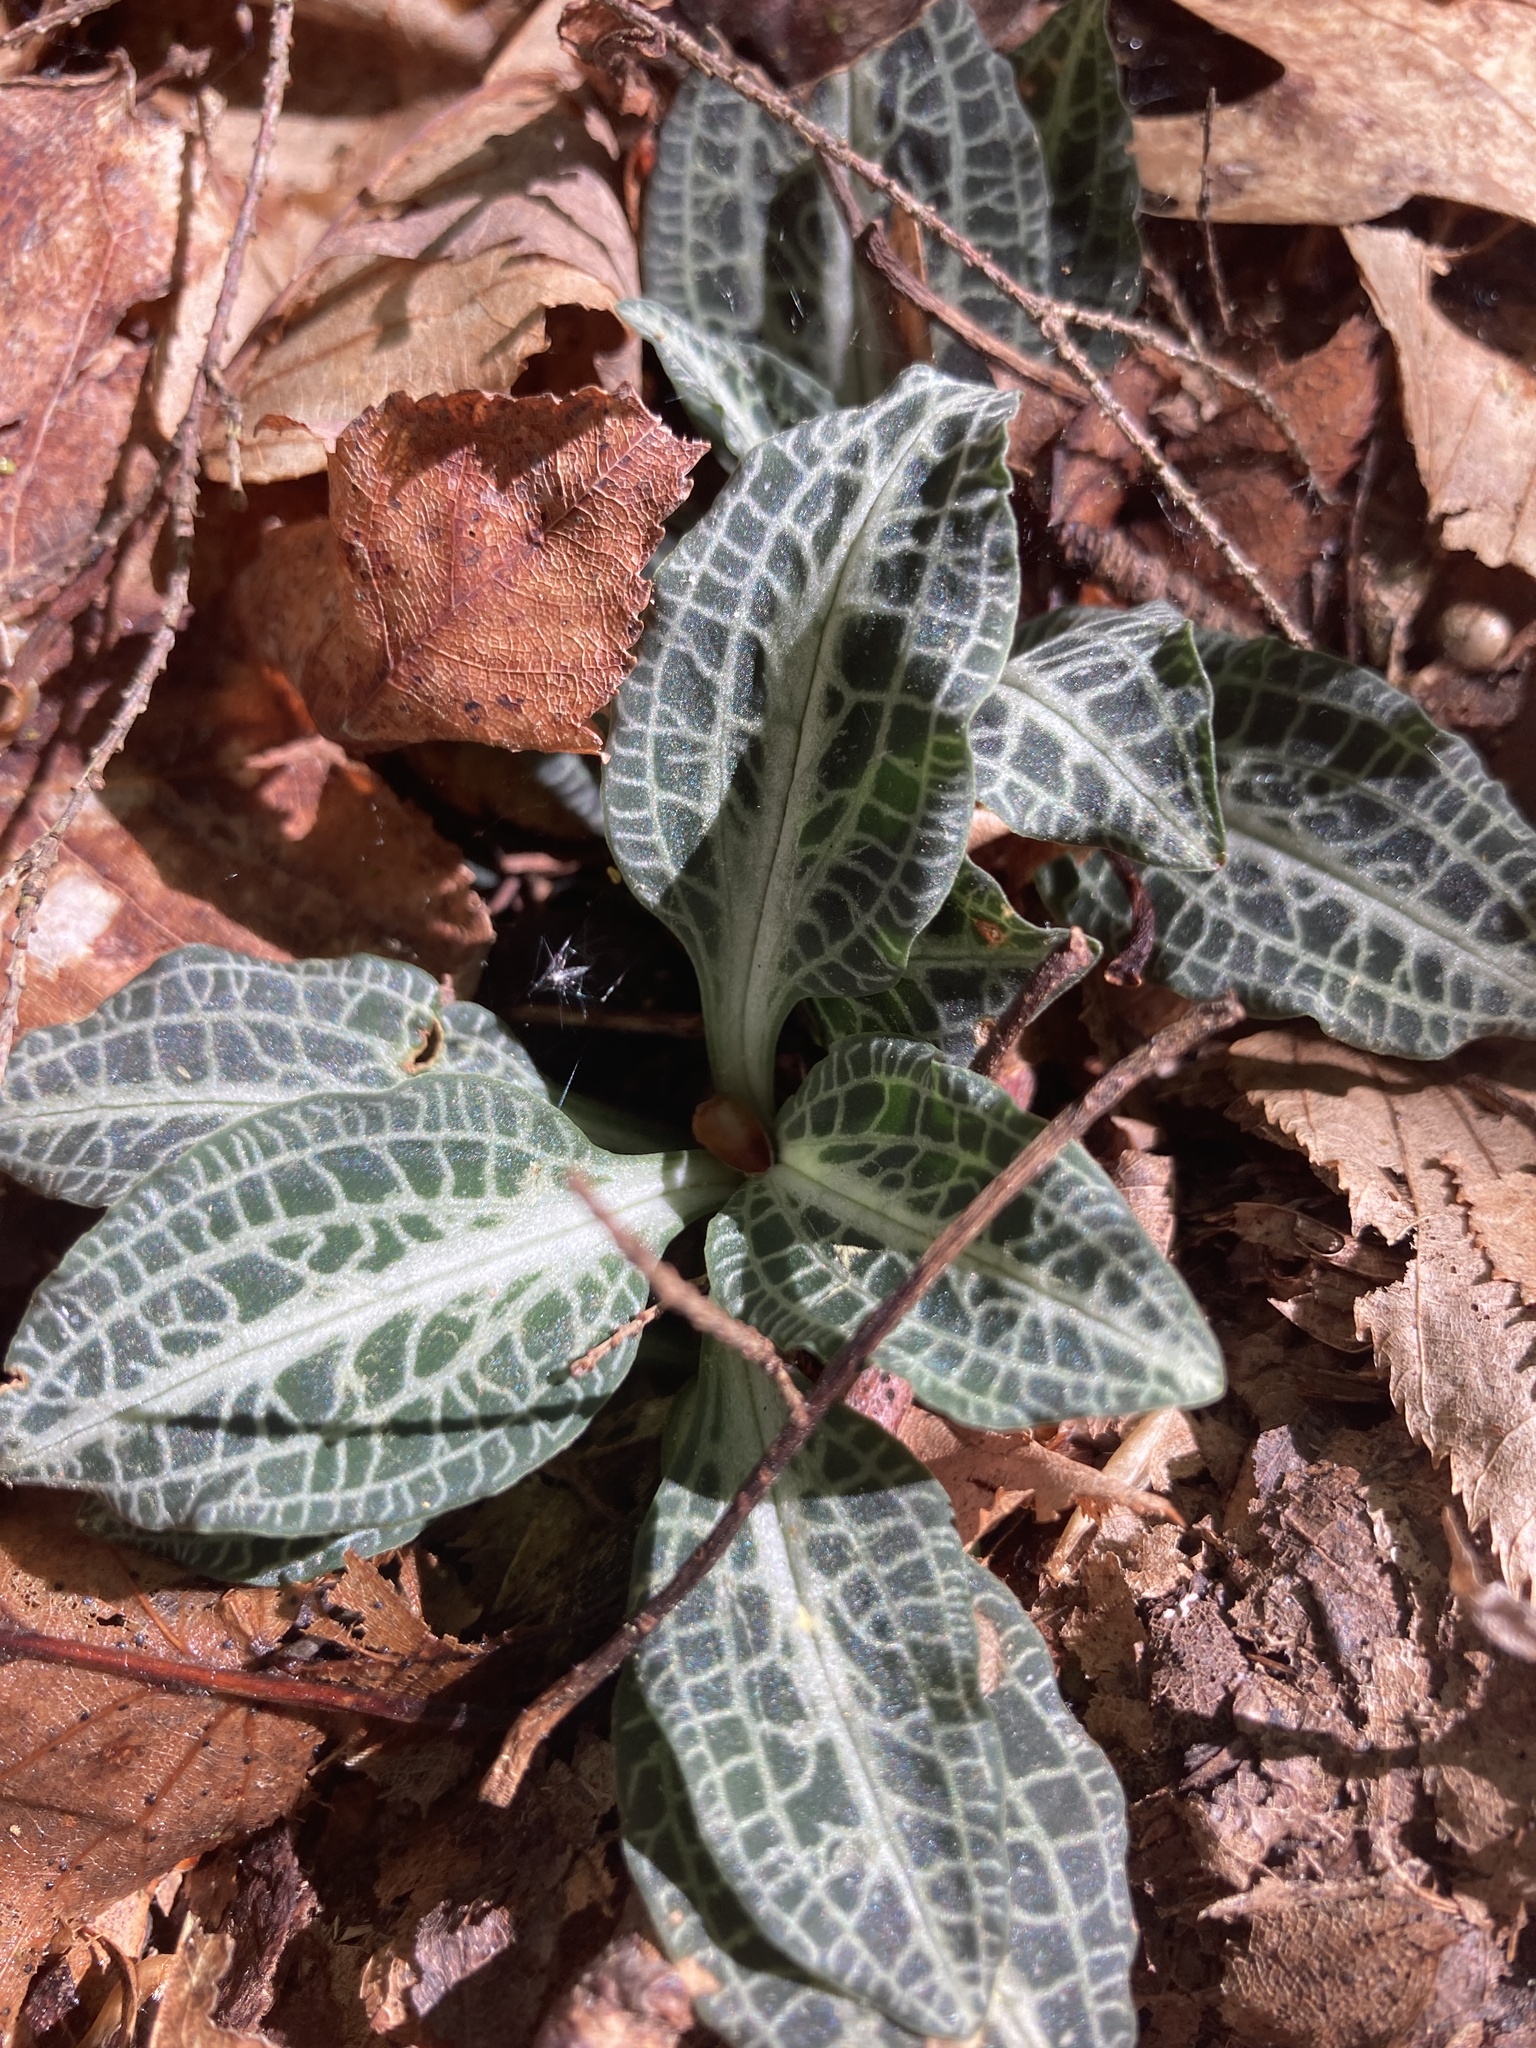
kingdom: Plantae
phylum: Tracheophyta
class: Liliopsida
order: Asparagales
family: Orchidaceae
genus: Goodyera
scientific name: Goodyera pubescens
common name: Downy rattlesnake-plantain
